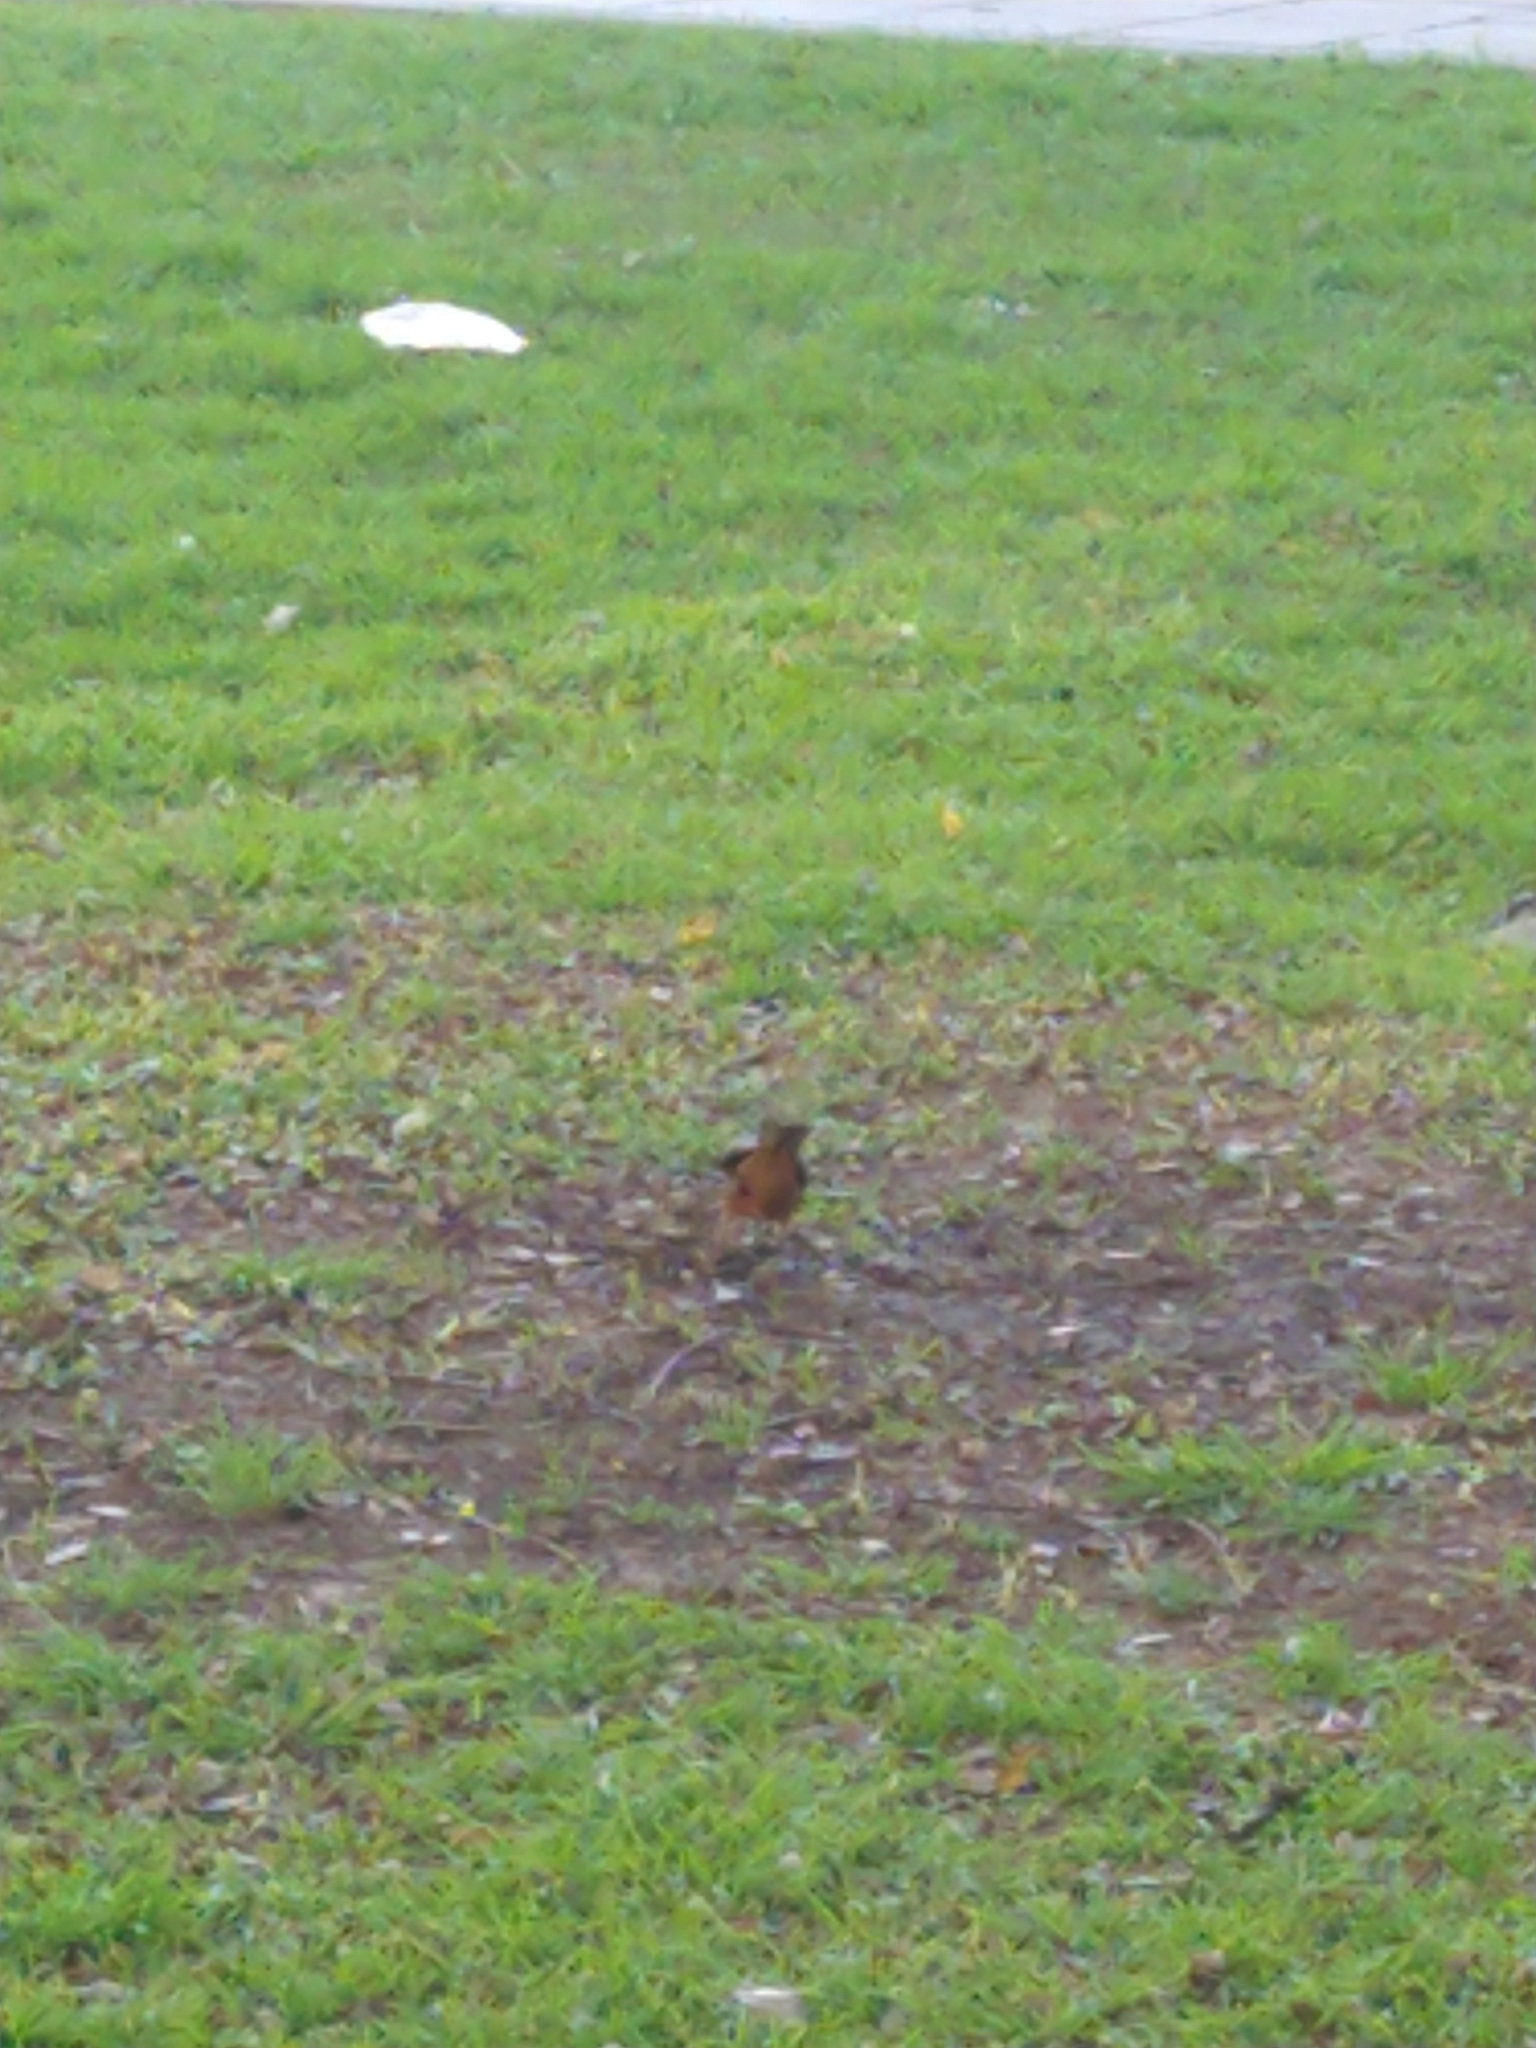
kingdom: Animalia
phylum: Chordata
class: Aves
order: Passeriformes
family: Turdidae
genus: Turdus
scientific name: Turdus rufiventris
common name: Rufous-bellied thrush
